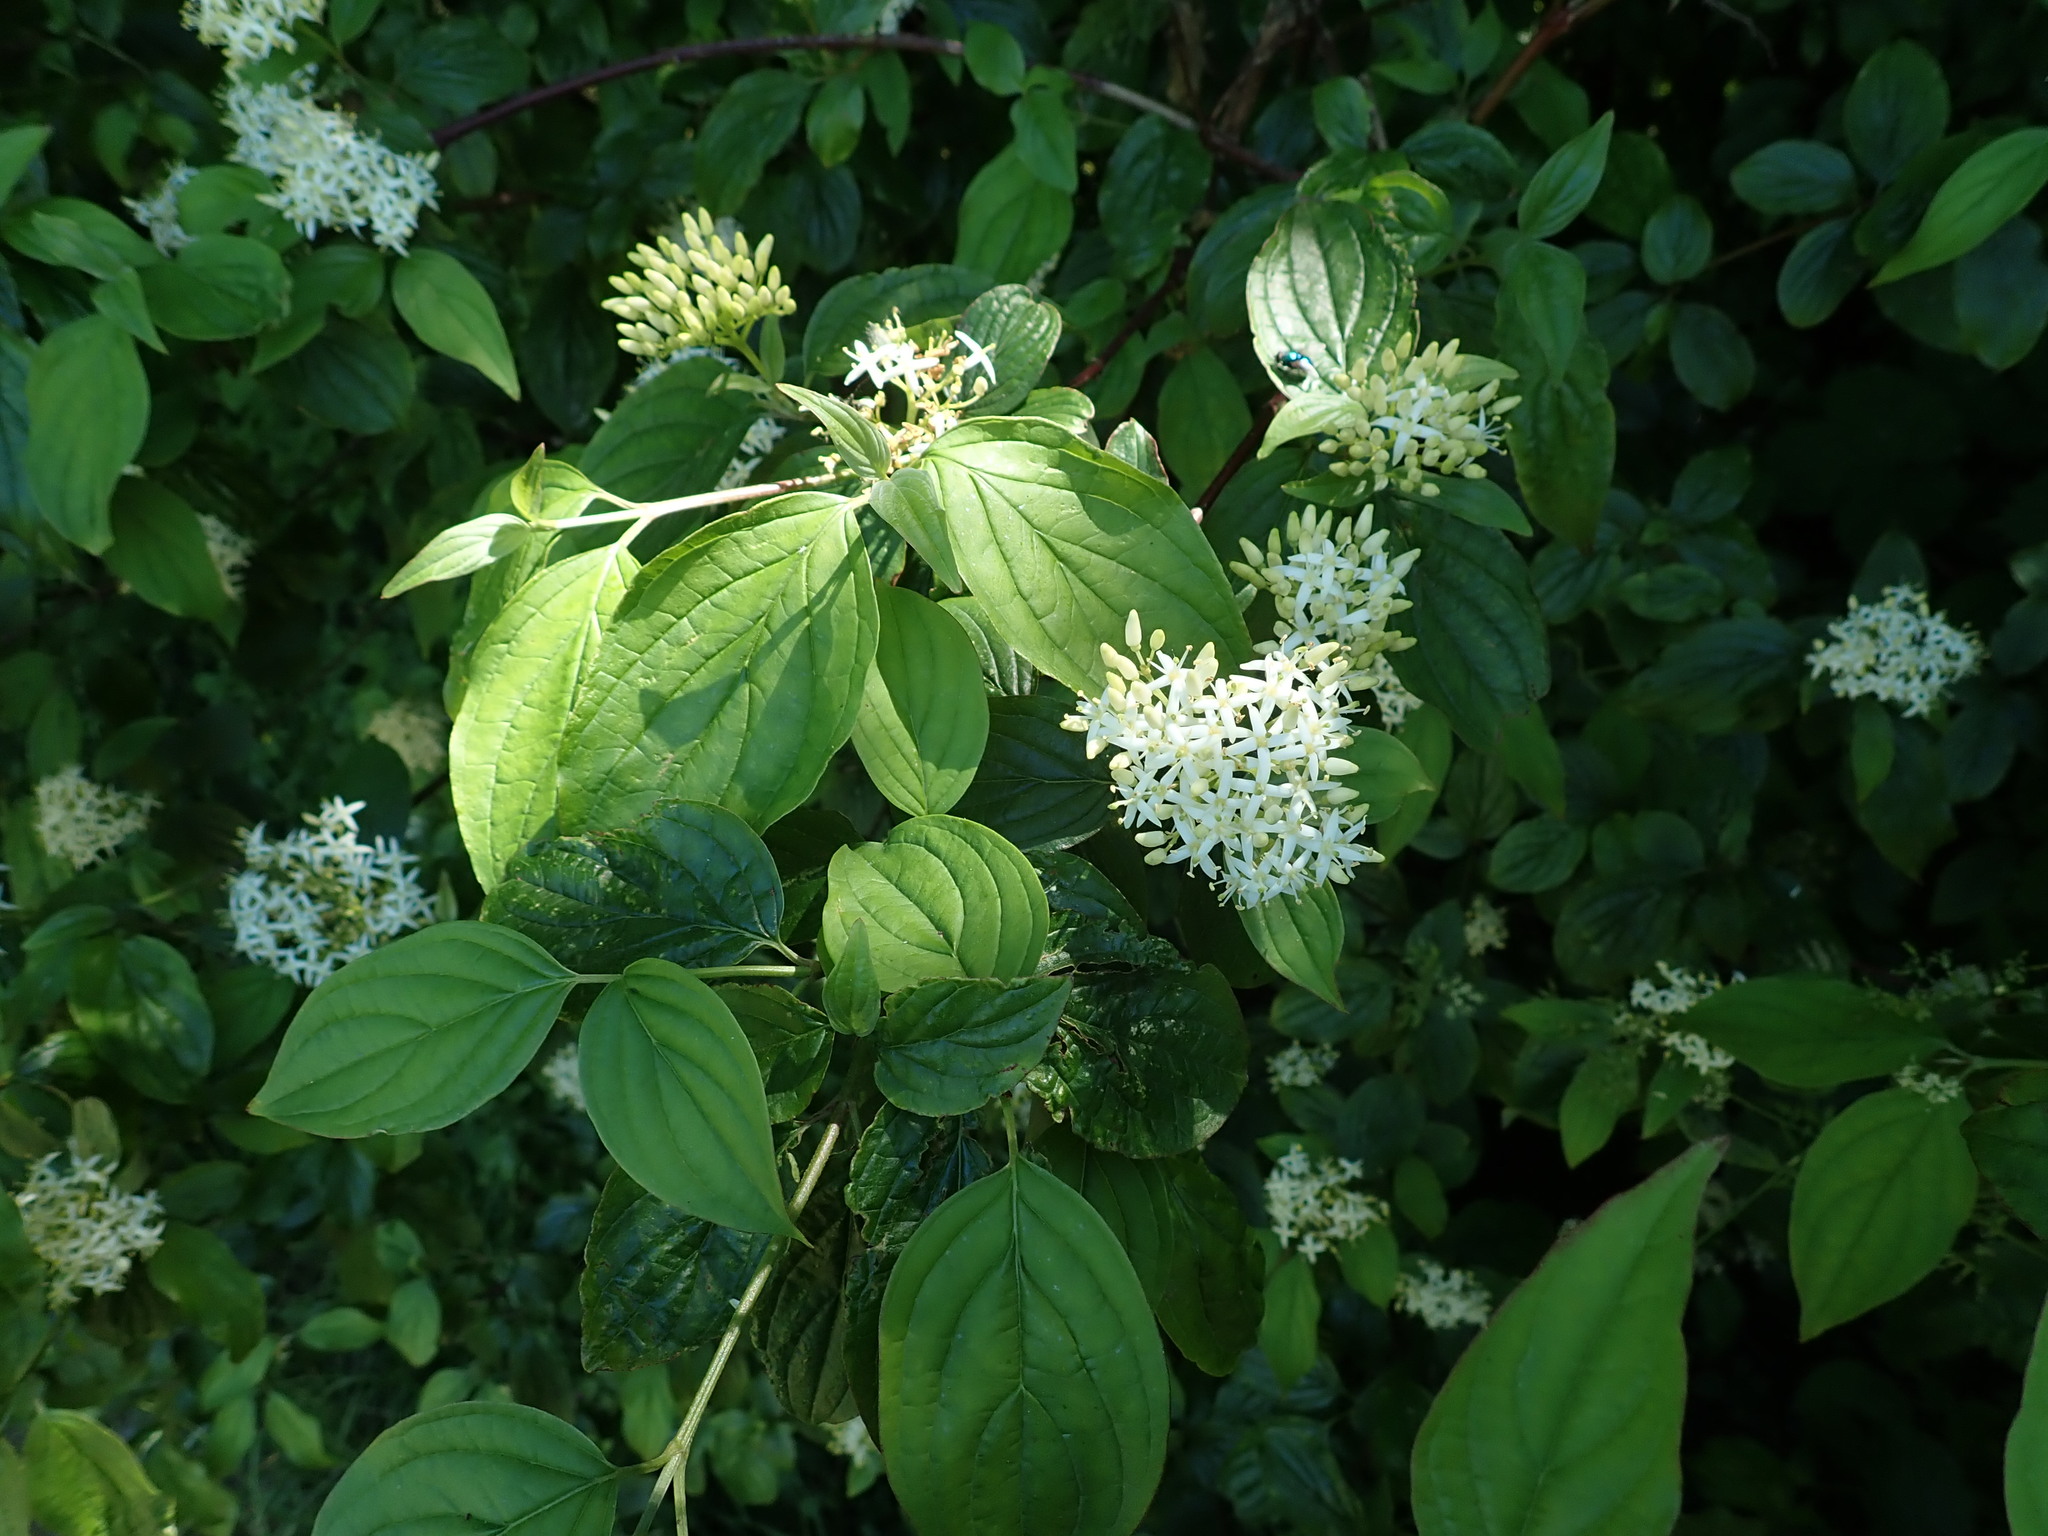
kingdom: Plantae
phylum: Tracheophyta
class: Magnoliopsida
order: Cornales
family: Cornaceae
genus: Cornus
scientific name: Cornus sanguinea
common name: Dogwood
